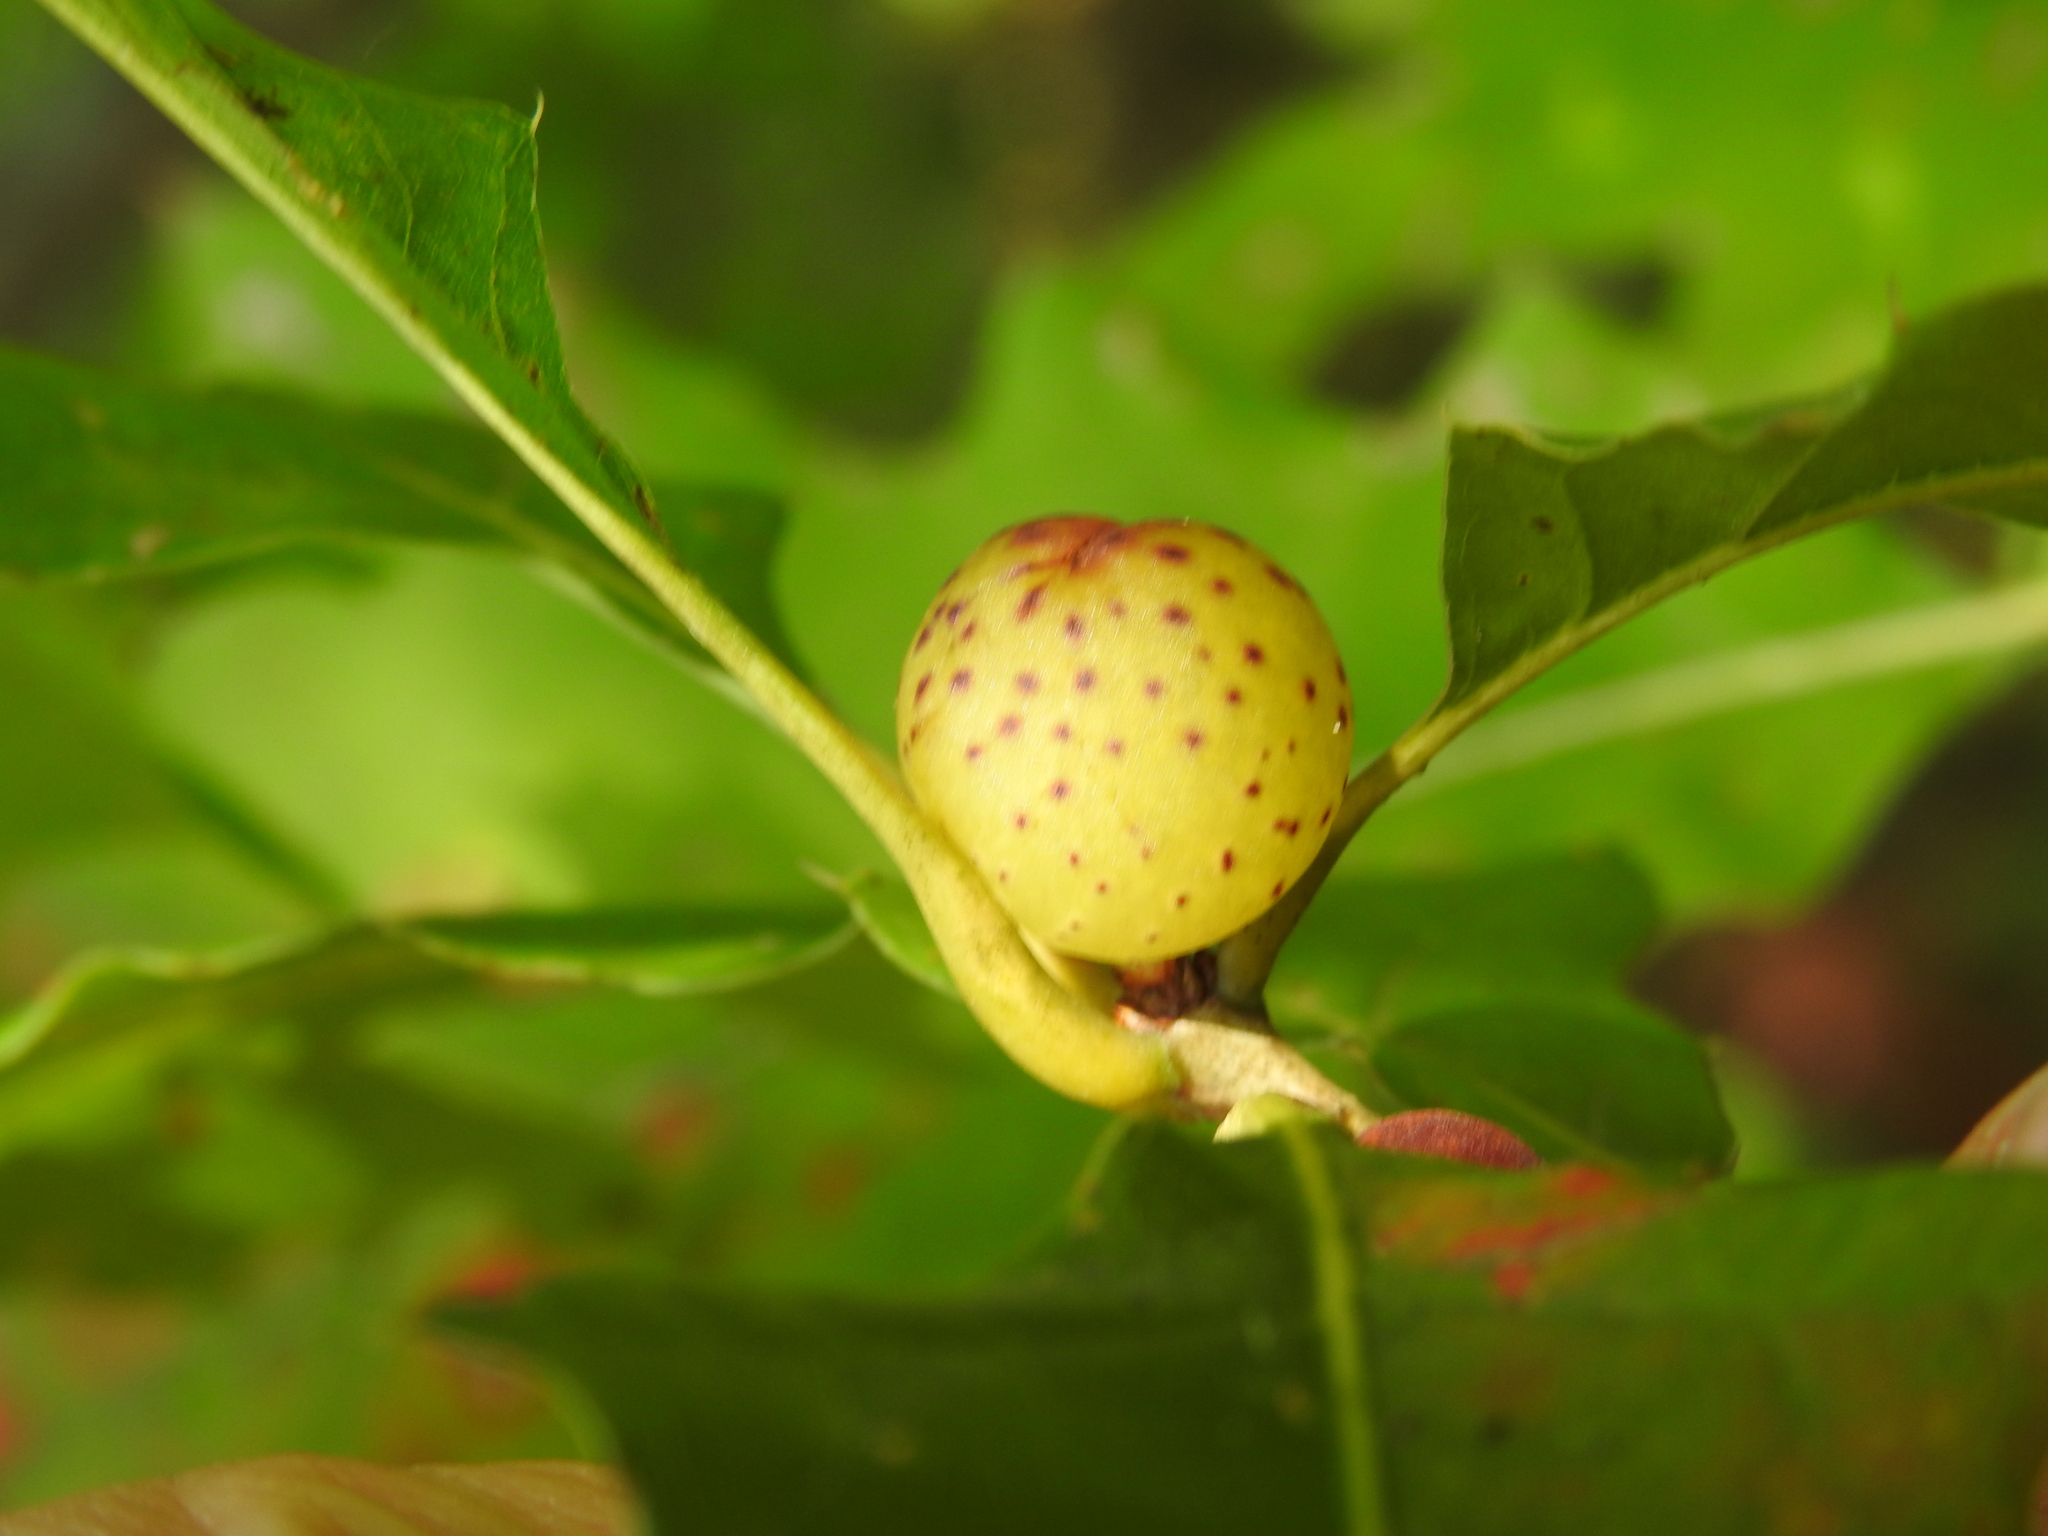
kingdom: Animalia
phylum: Arthropoda
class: Insecta
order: Hymenoptera
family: Cynipidae
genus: Amphibolips
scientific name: Amphibolips
